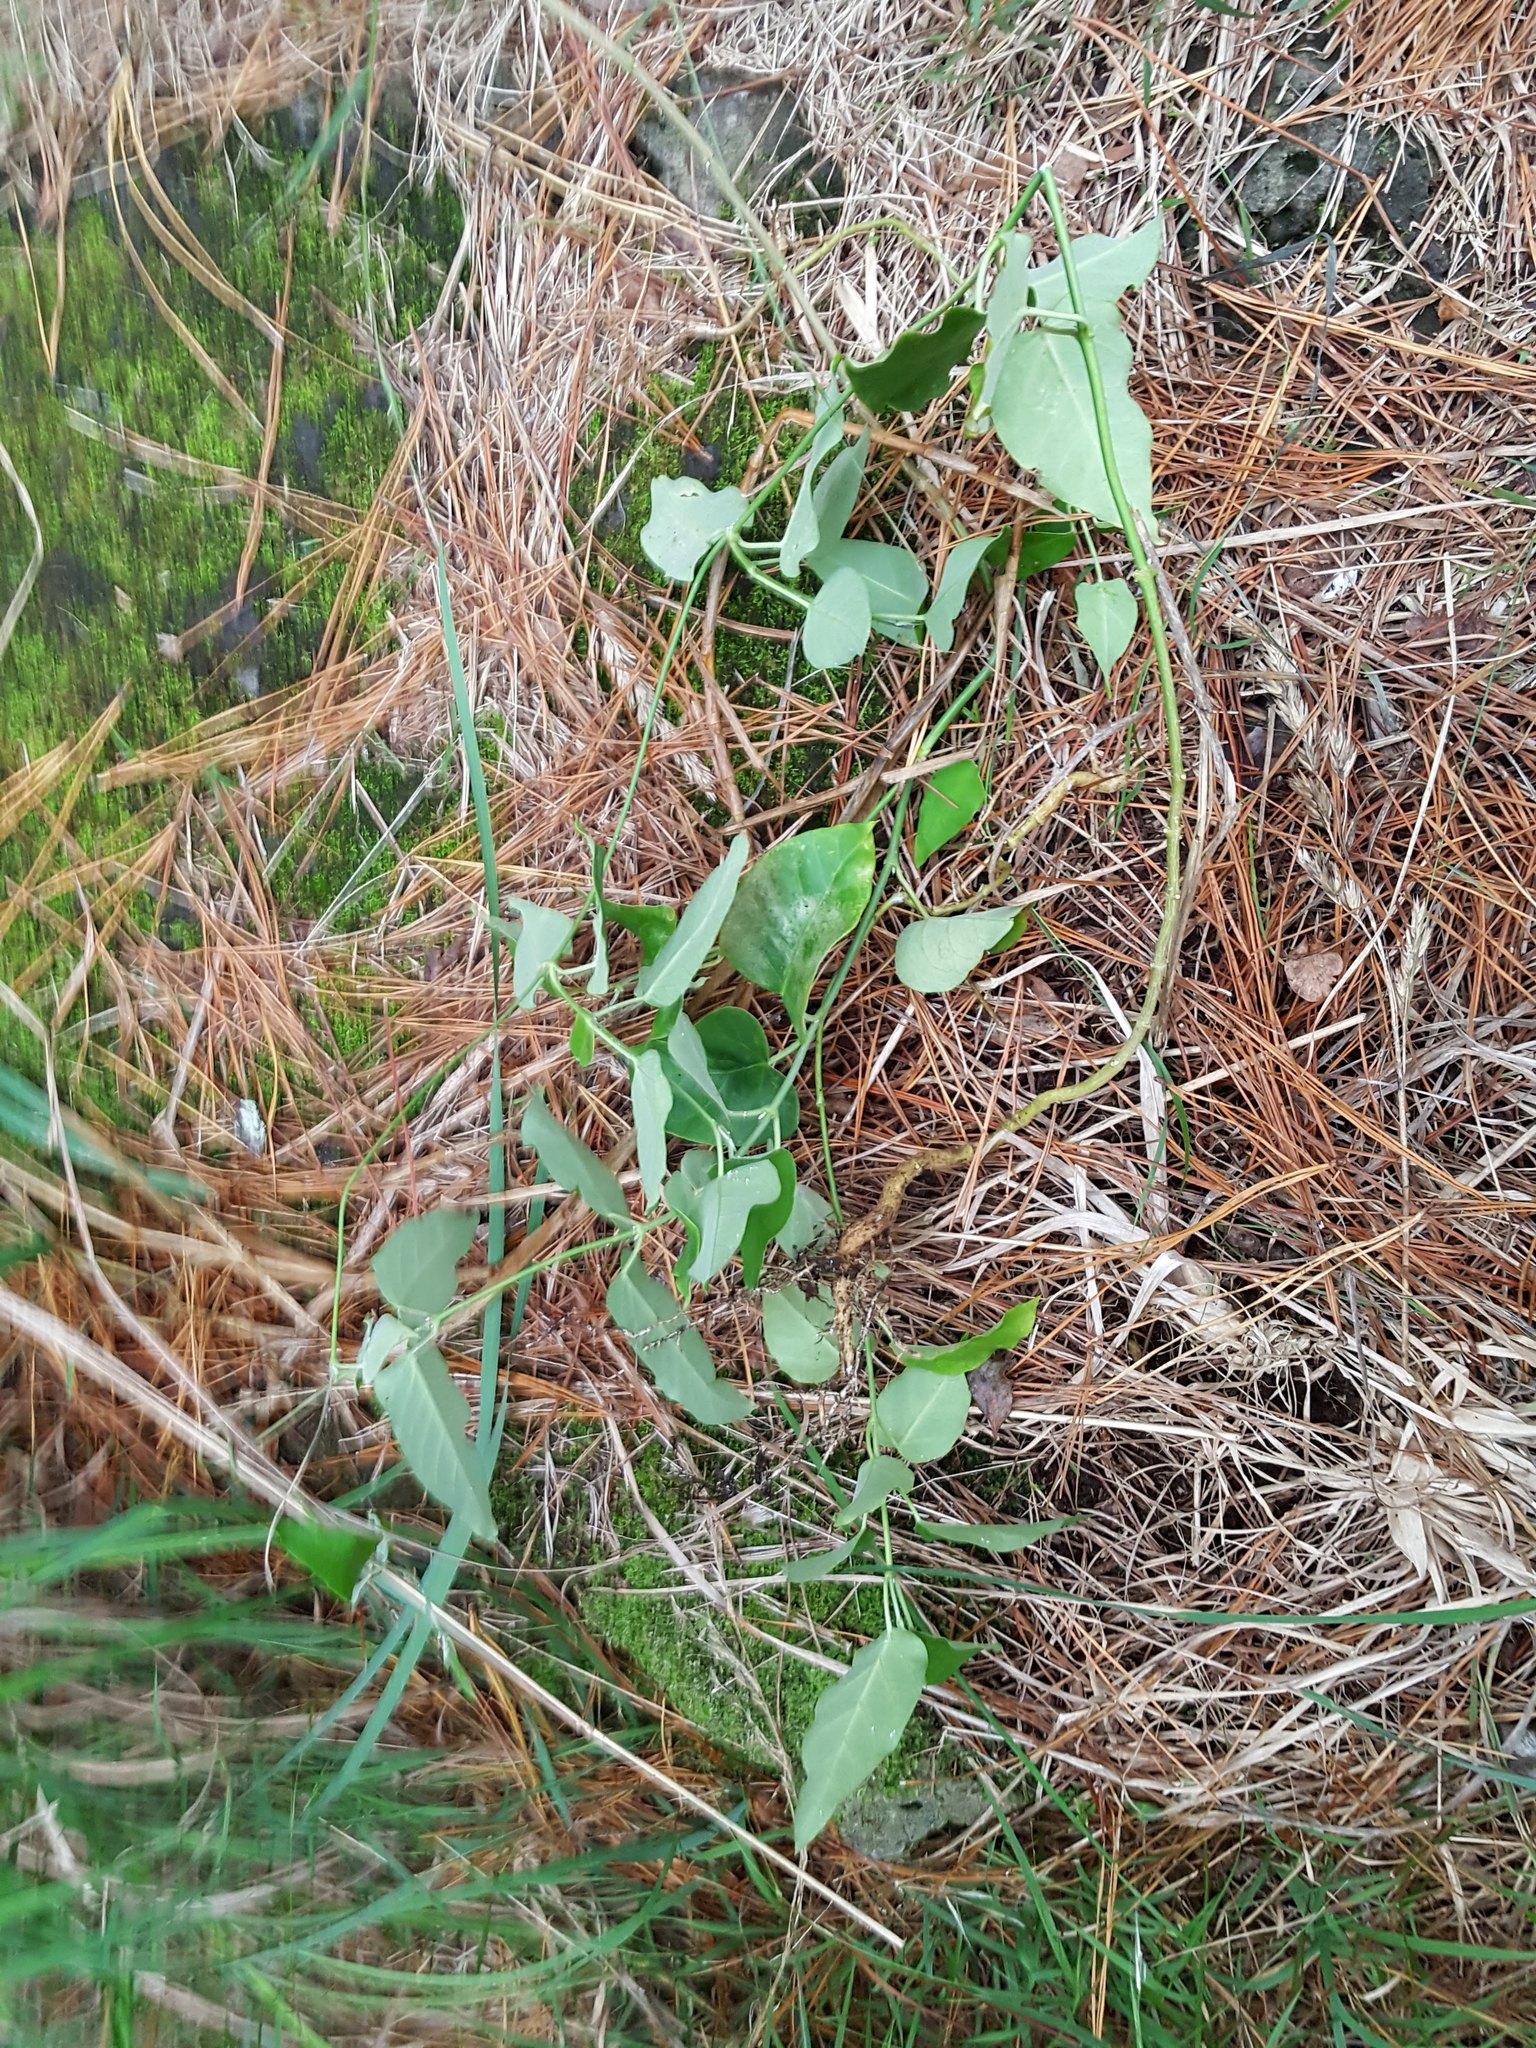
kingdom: Plantae
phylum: Tracheophyta
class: Magnoliopsida
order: Gentianales
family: Apocynaceae
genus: Araujia
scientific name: Araujia sericifera
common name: White bladderflower
